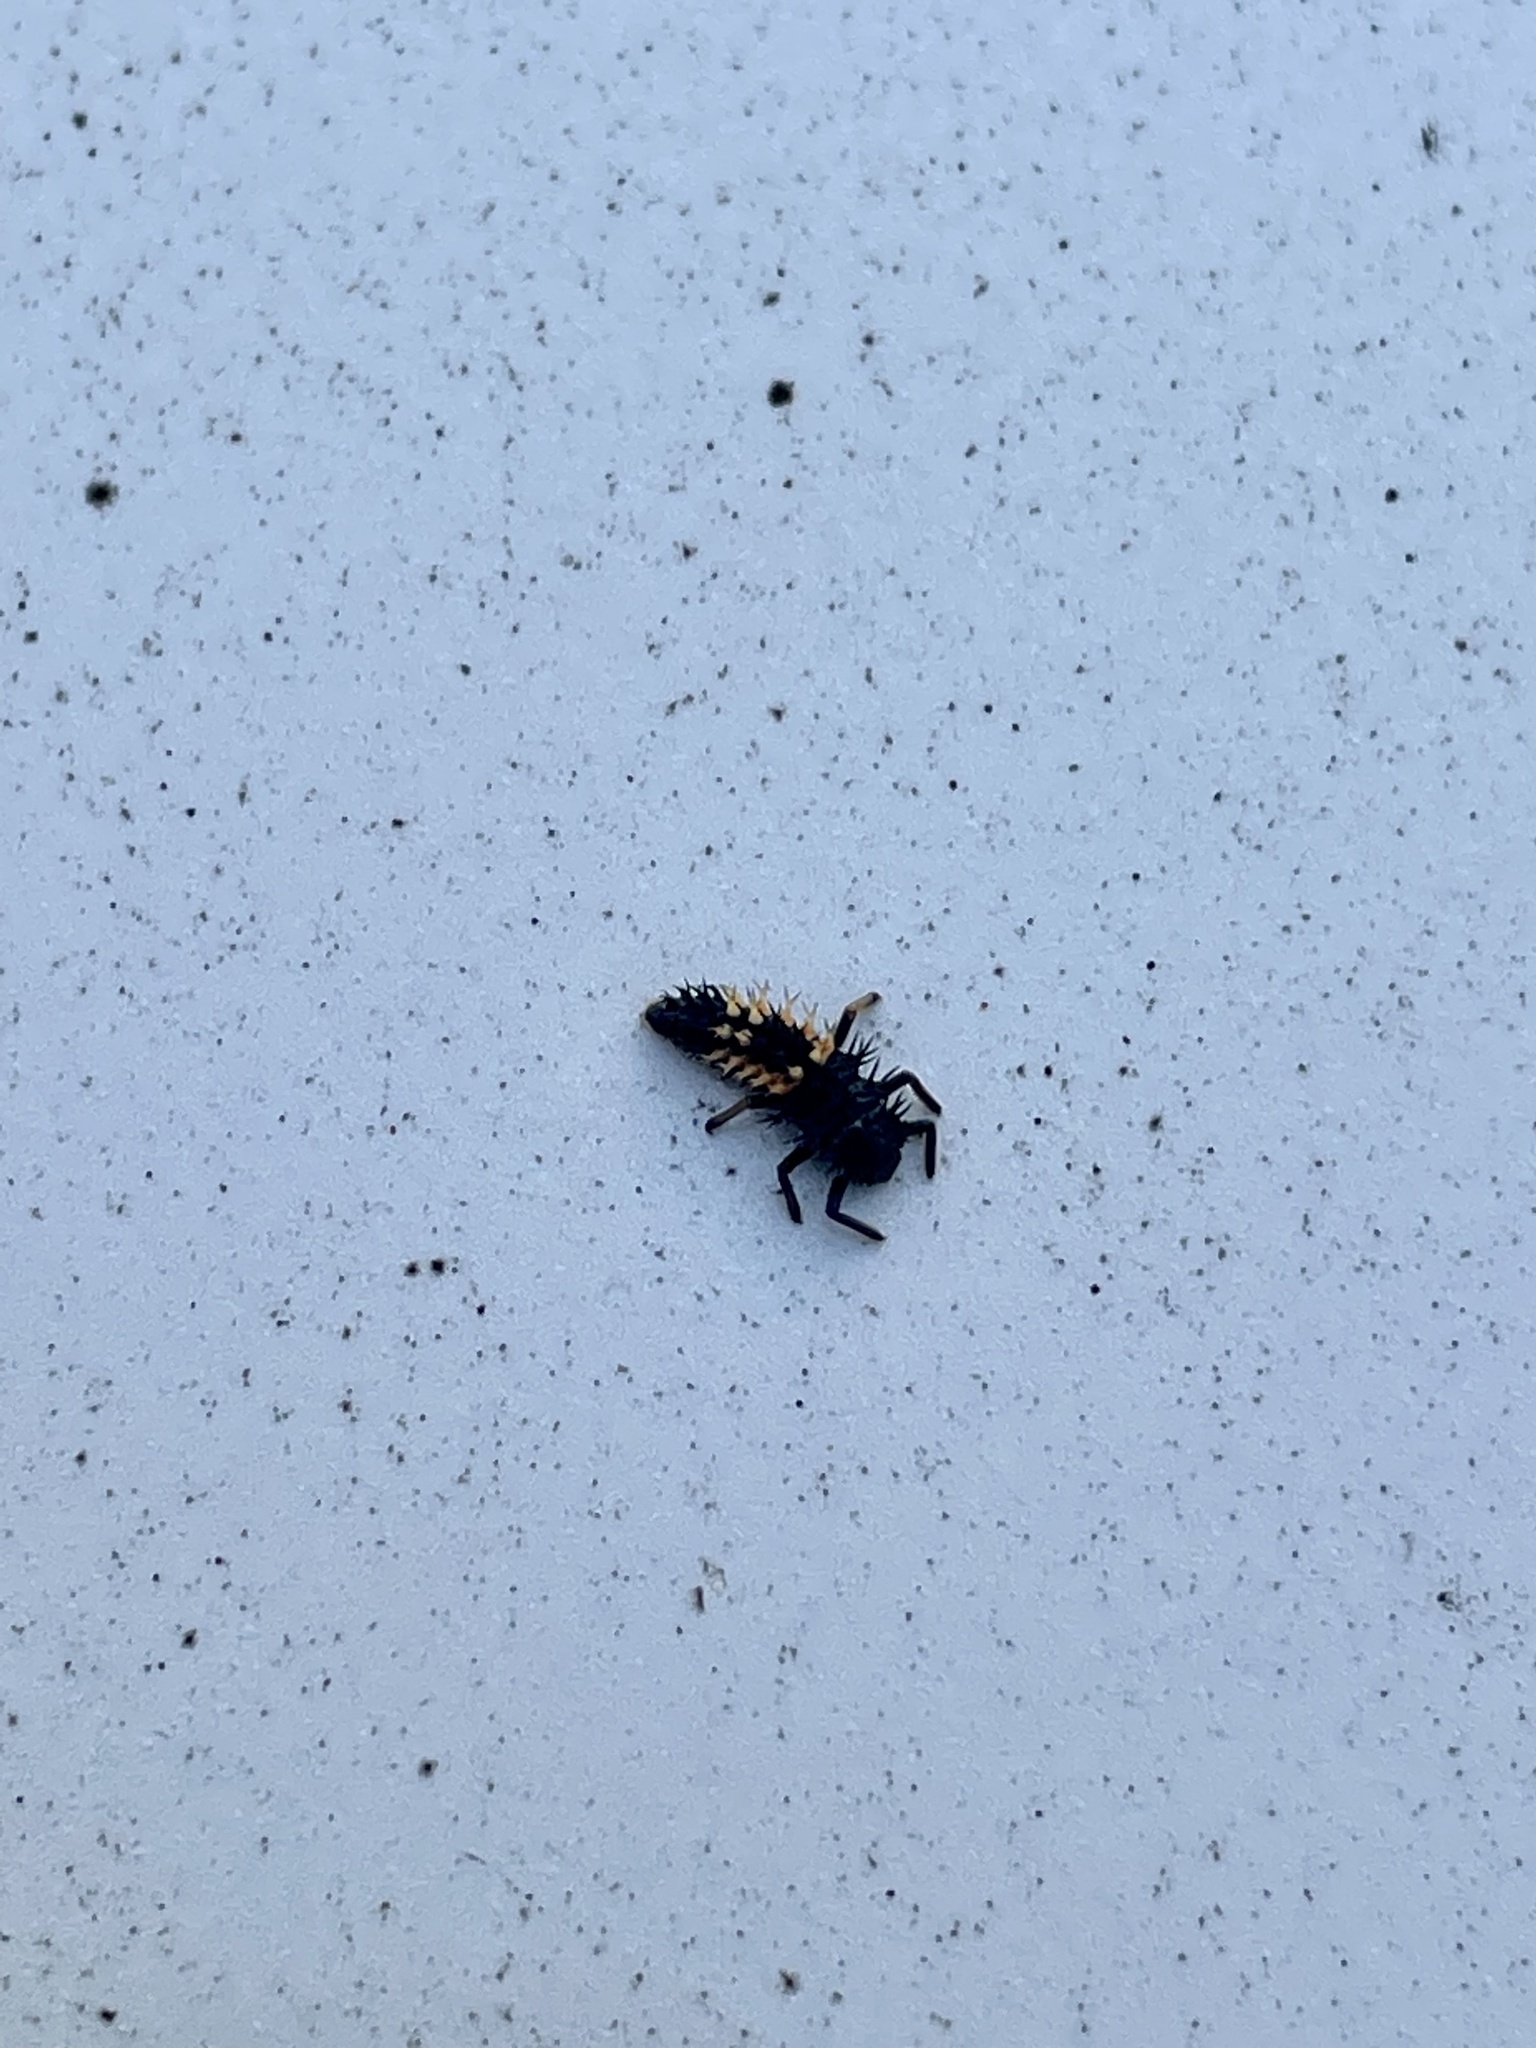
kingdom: Animalia
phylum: Arthropoda
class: Insecta
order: Coleoptera
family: Coccinellidae
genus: Harmonia
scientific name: Harmonia axyridis
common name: Harlequin ladybird
